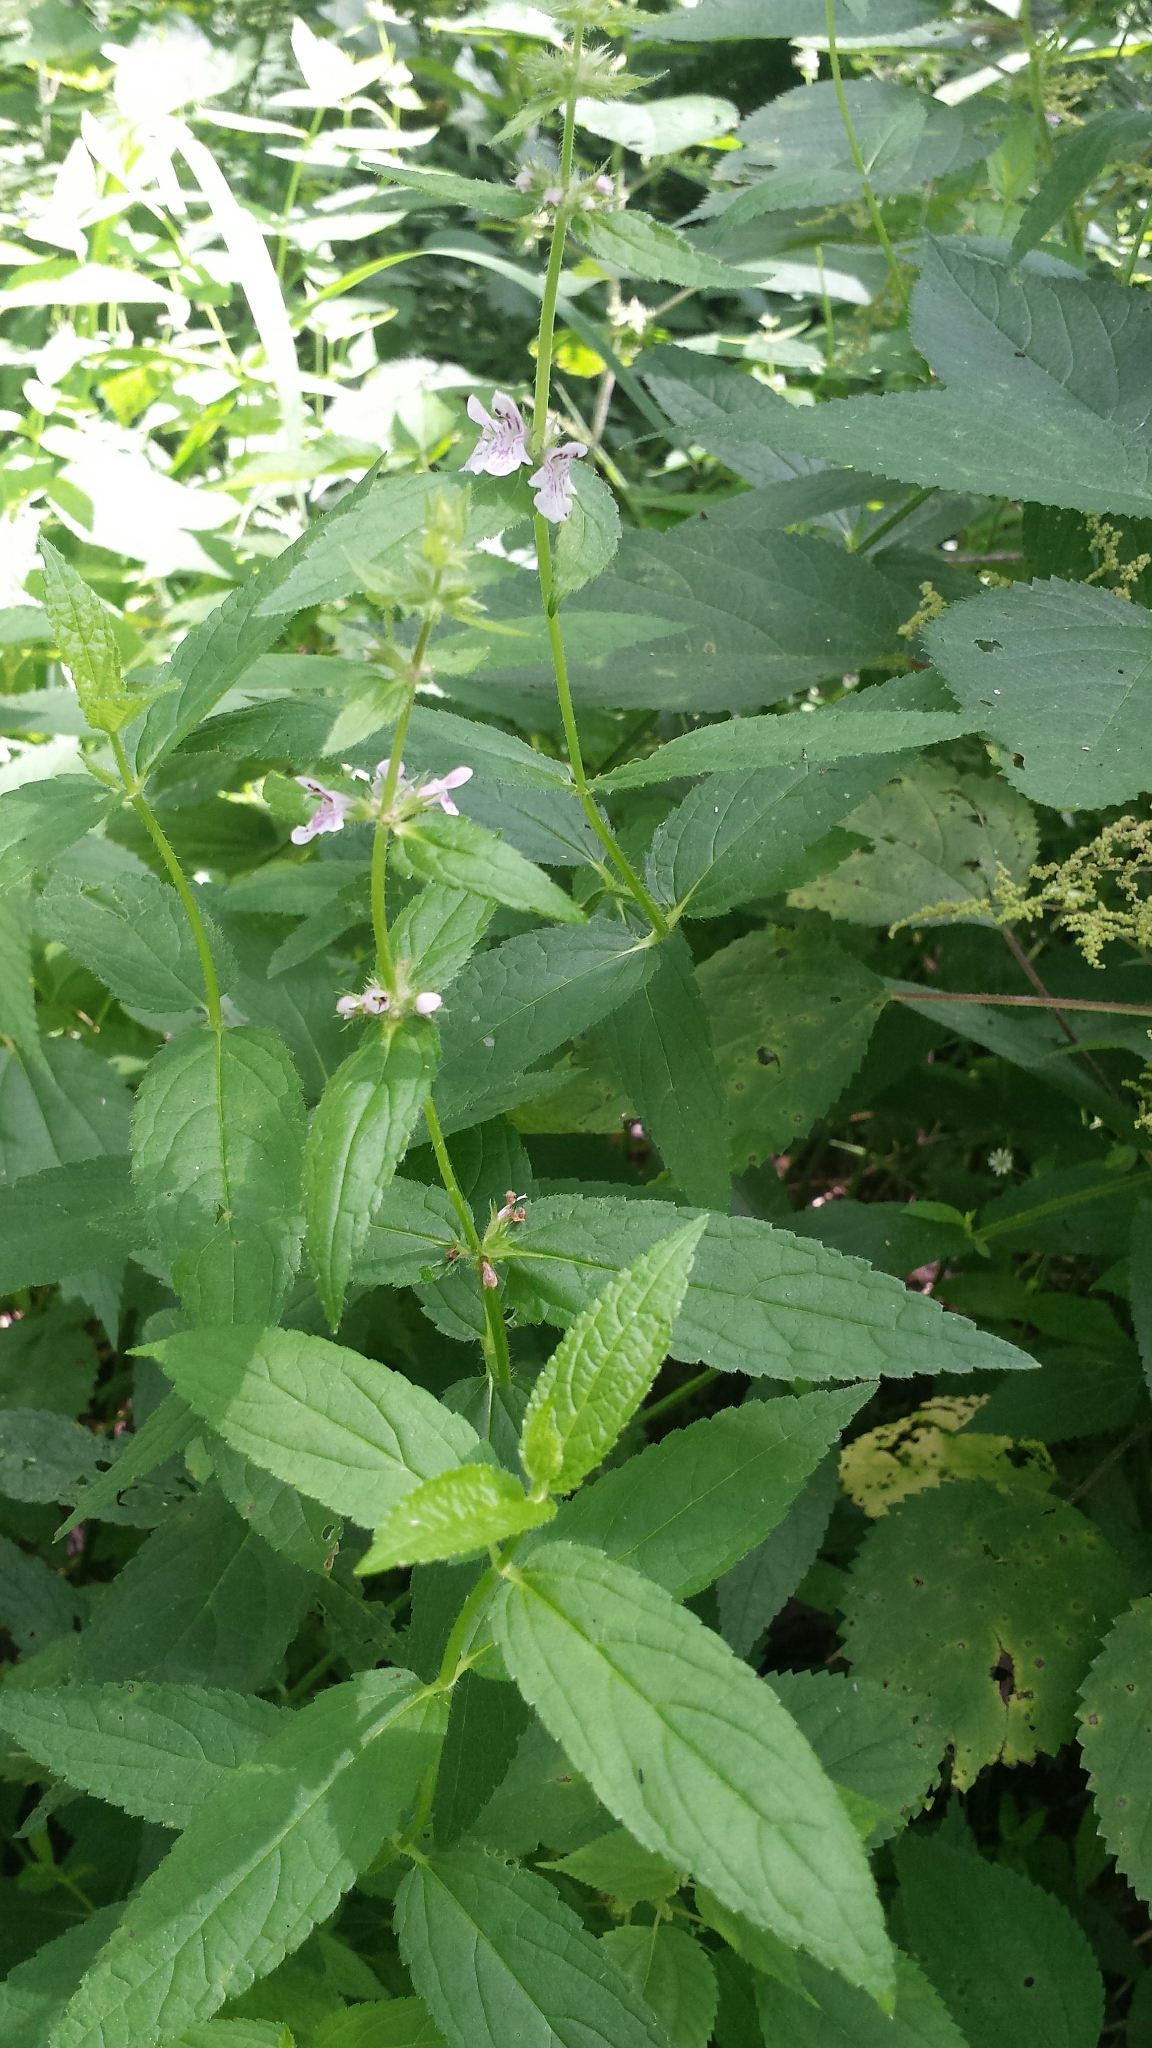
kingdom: Plantae
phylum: Tracheophyta
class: Magnoliopsida
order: Lamiales
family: Lamiaceae
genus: Stachys
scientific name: Stachys hispida
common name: Hispid hedge-nettle
